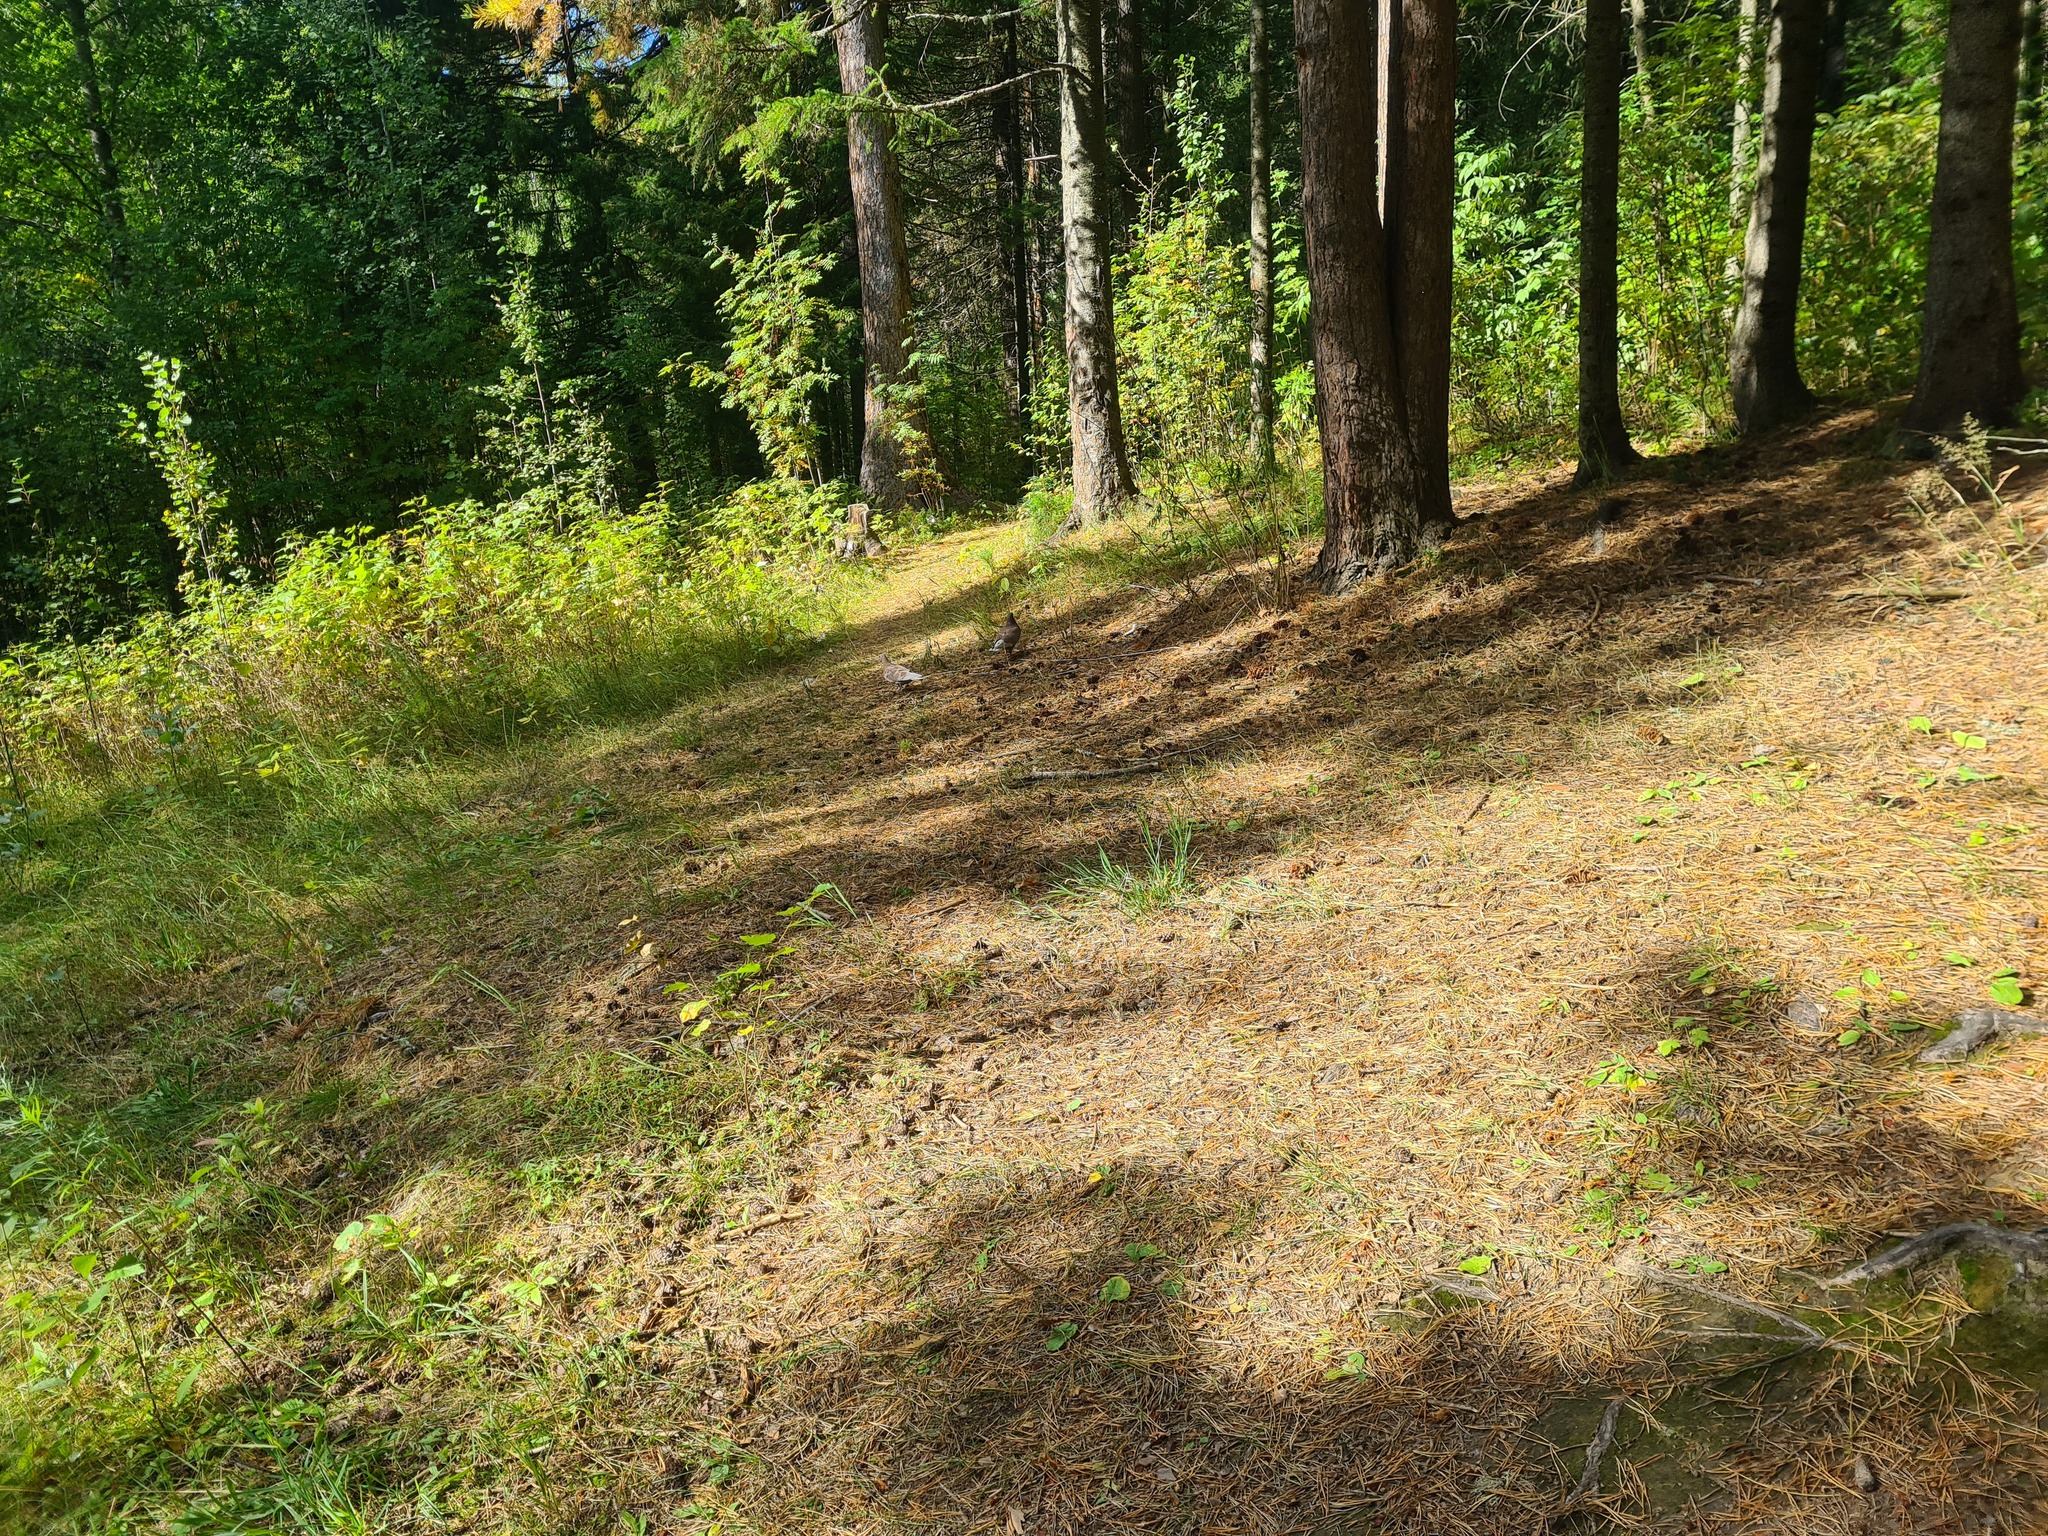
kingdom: Animalia
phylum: Chordata
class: Aves
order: Columbiformes
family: Columbidae
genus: Columba
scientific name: Columba livia
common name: Rock pigeon
